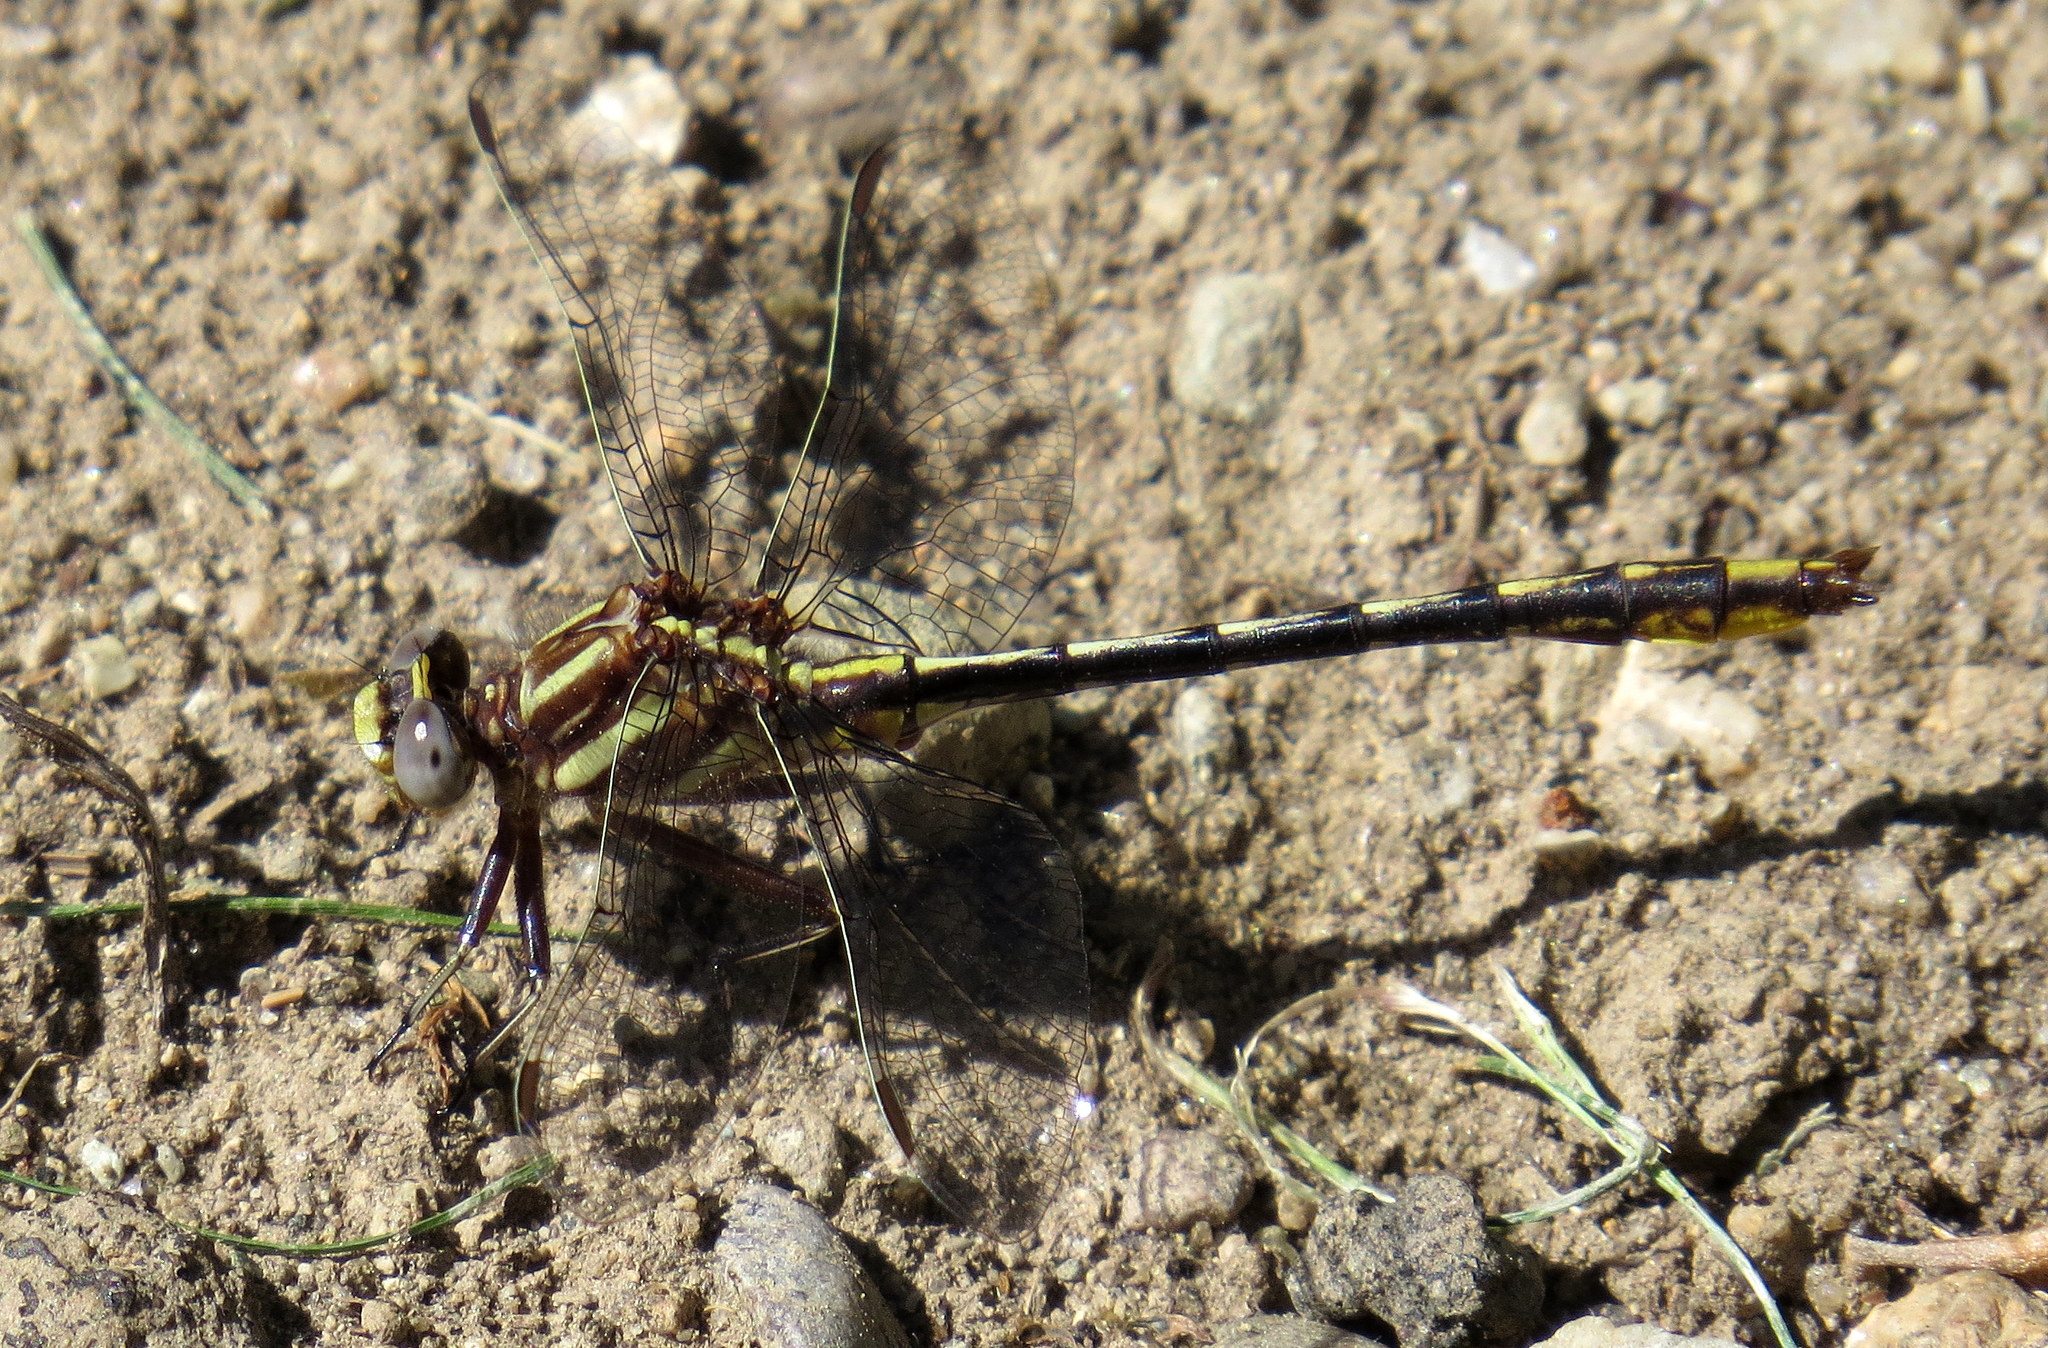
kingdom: Animalia
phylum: Arthropoda
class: Insecta
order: Odonata
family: Gomphidae
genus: Phanogomphus
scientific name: Phanogomphus exilis
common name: Lancet clubtail
